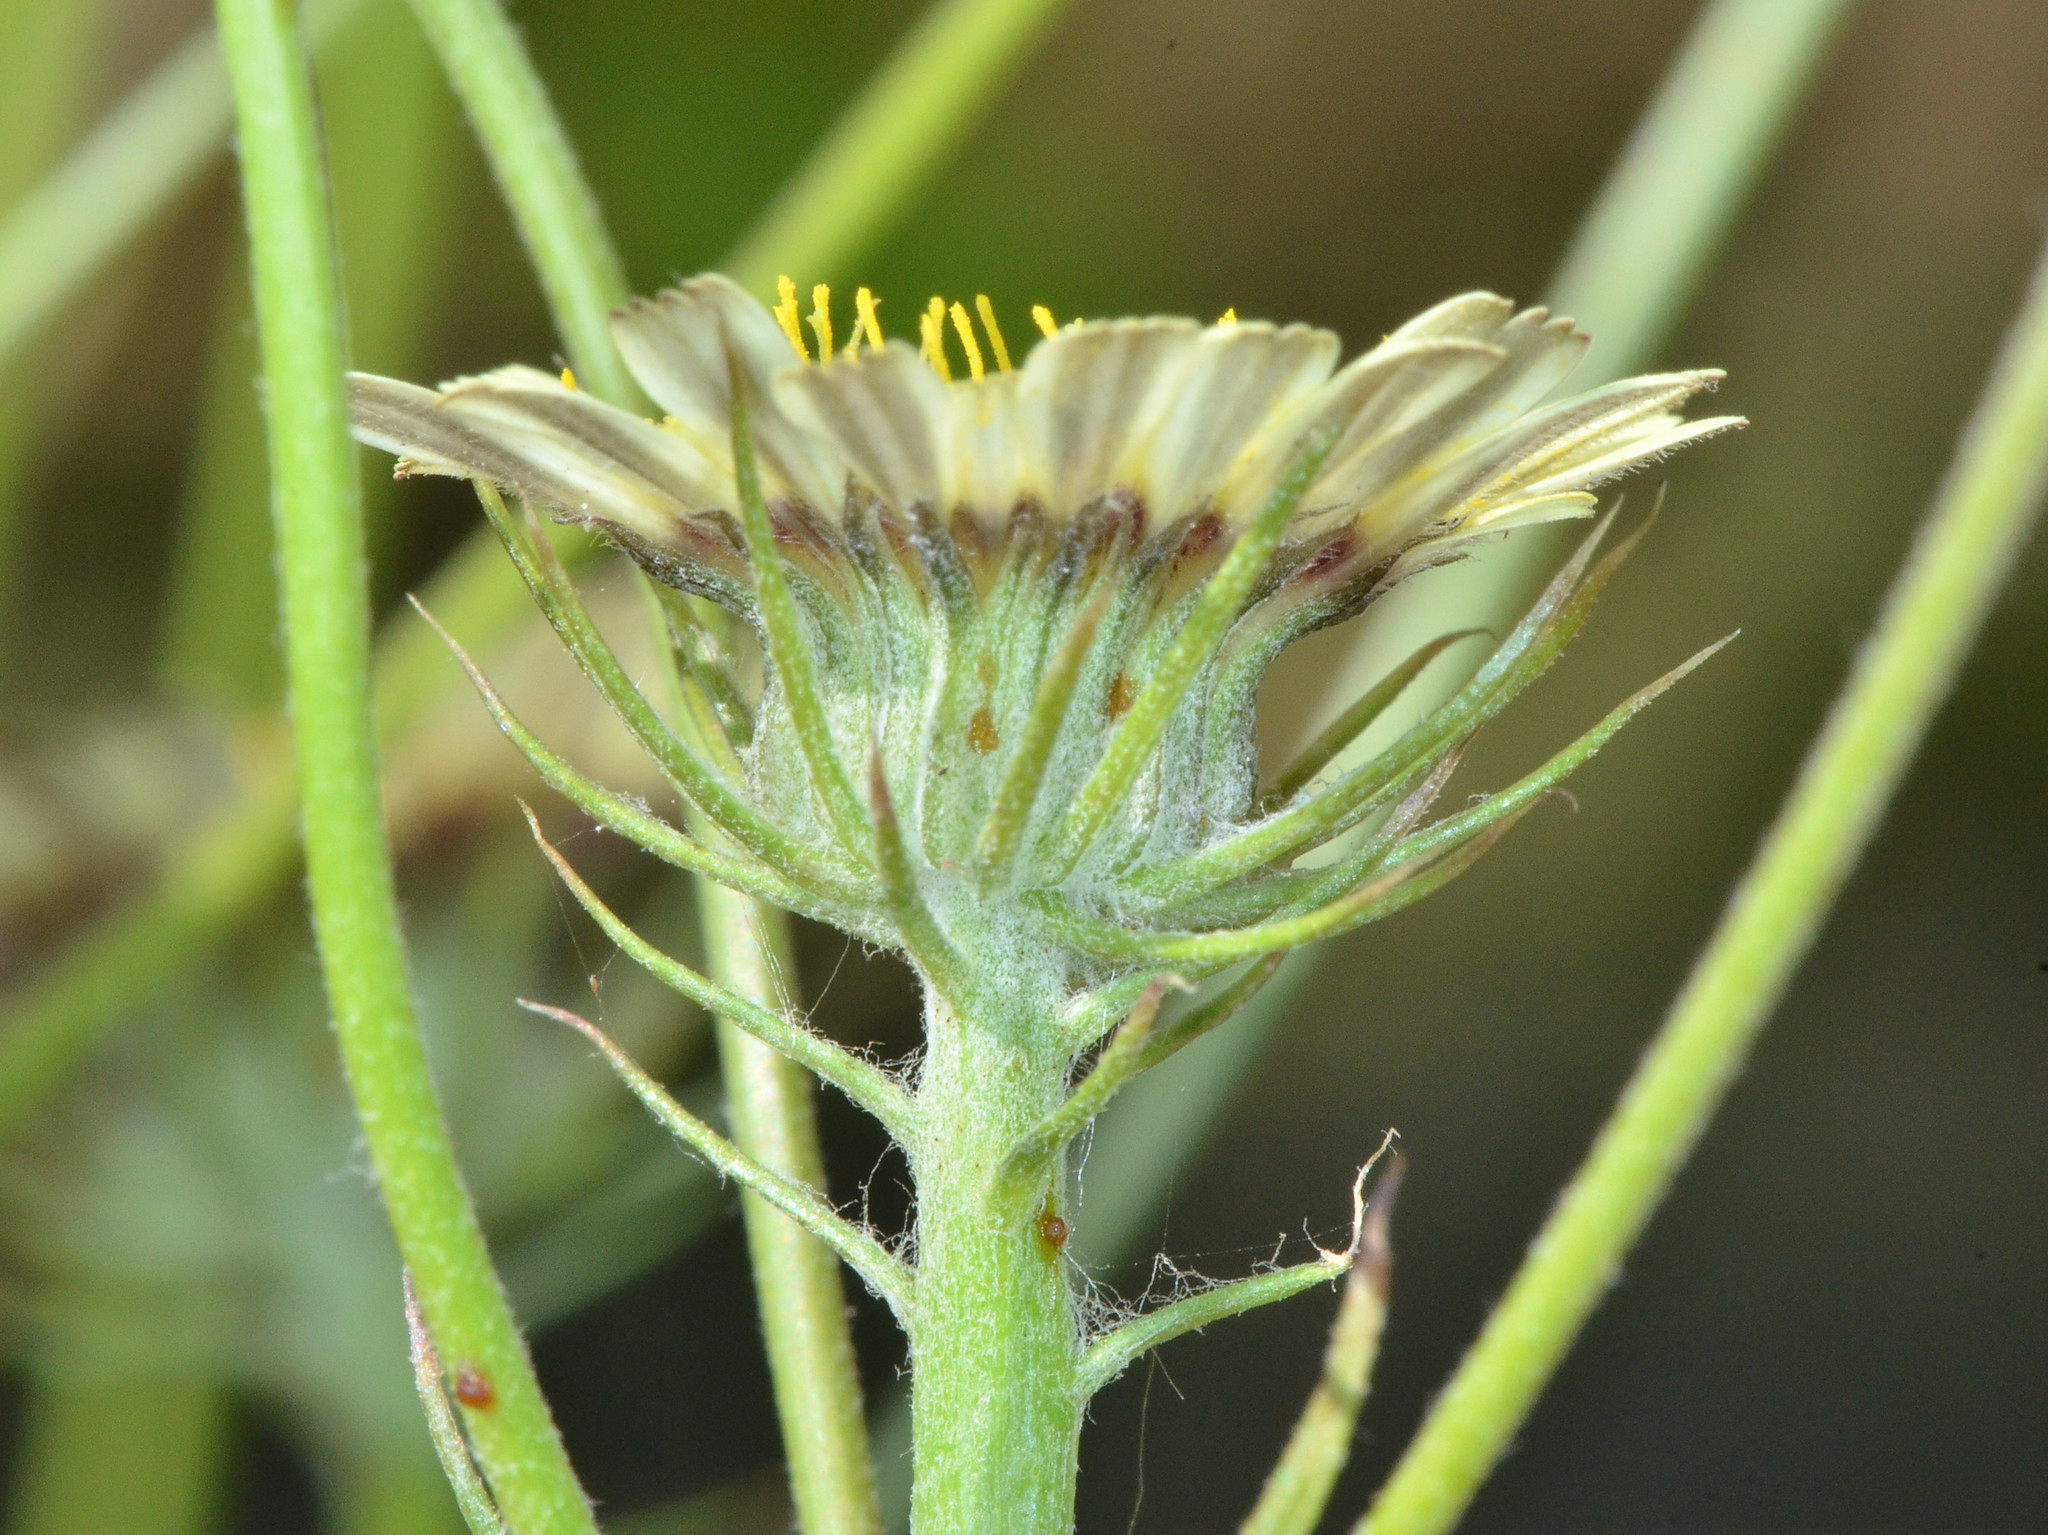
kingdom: Plantae
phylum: Tracheophyta
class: Magnoliopsida
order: Asterales
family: Asteraceae
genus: Tolpis
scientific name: Tolpis barbata
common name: Yellow hawkweed
